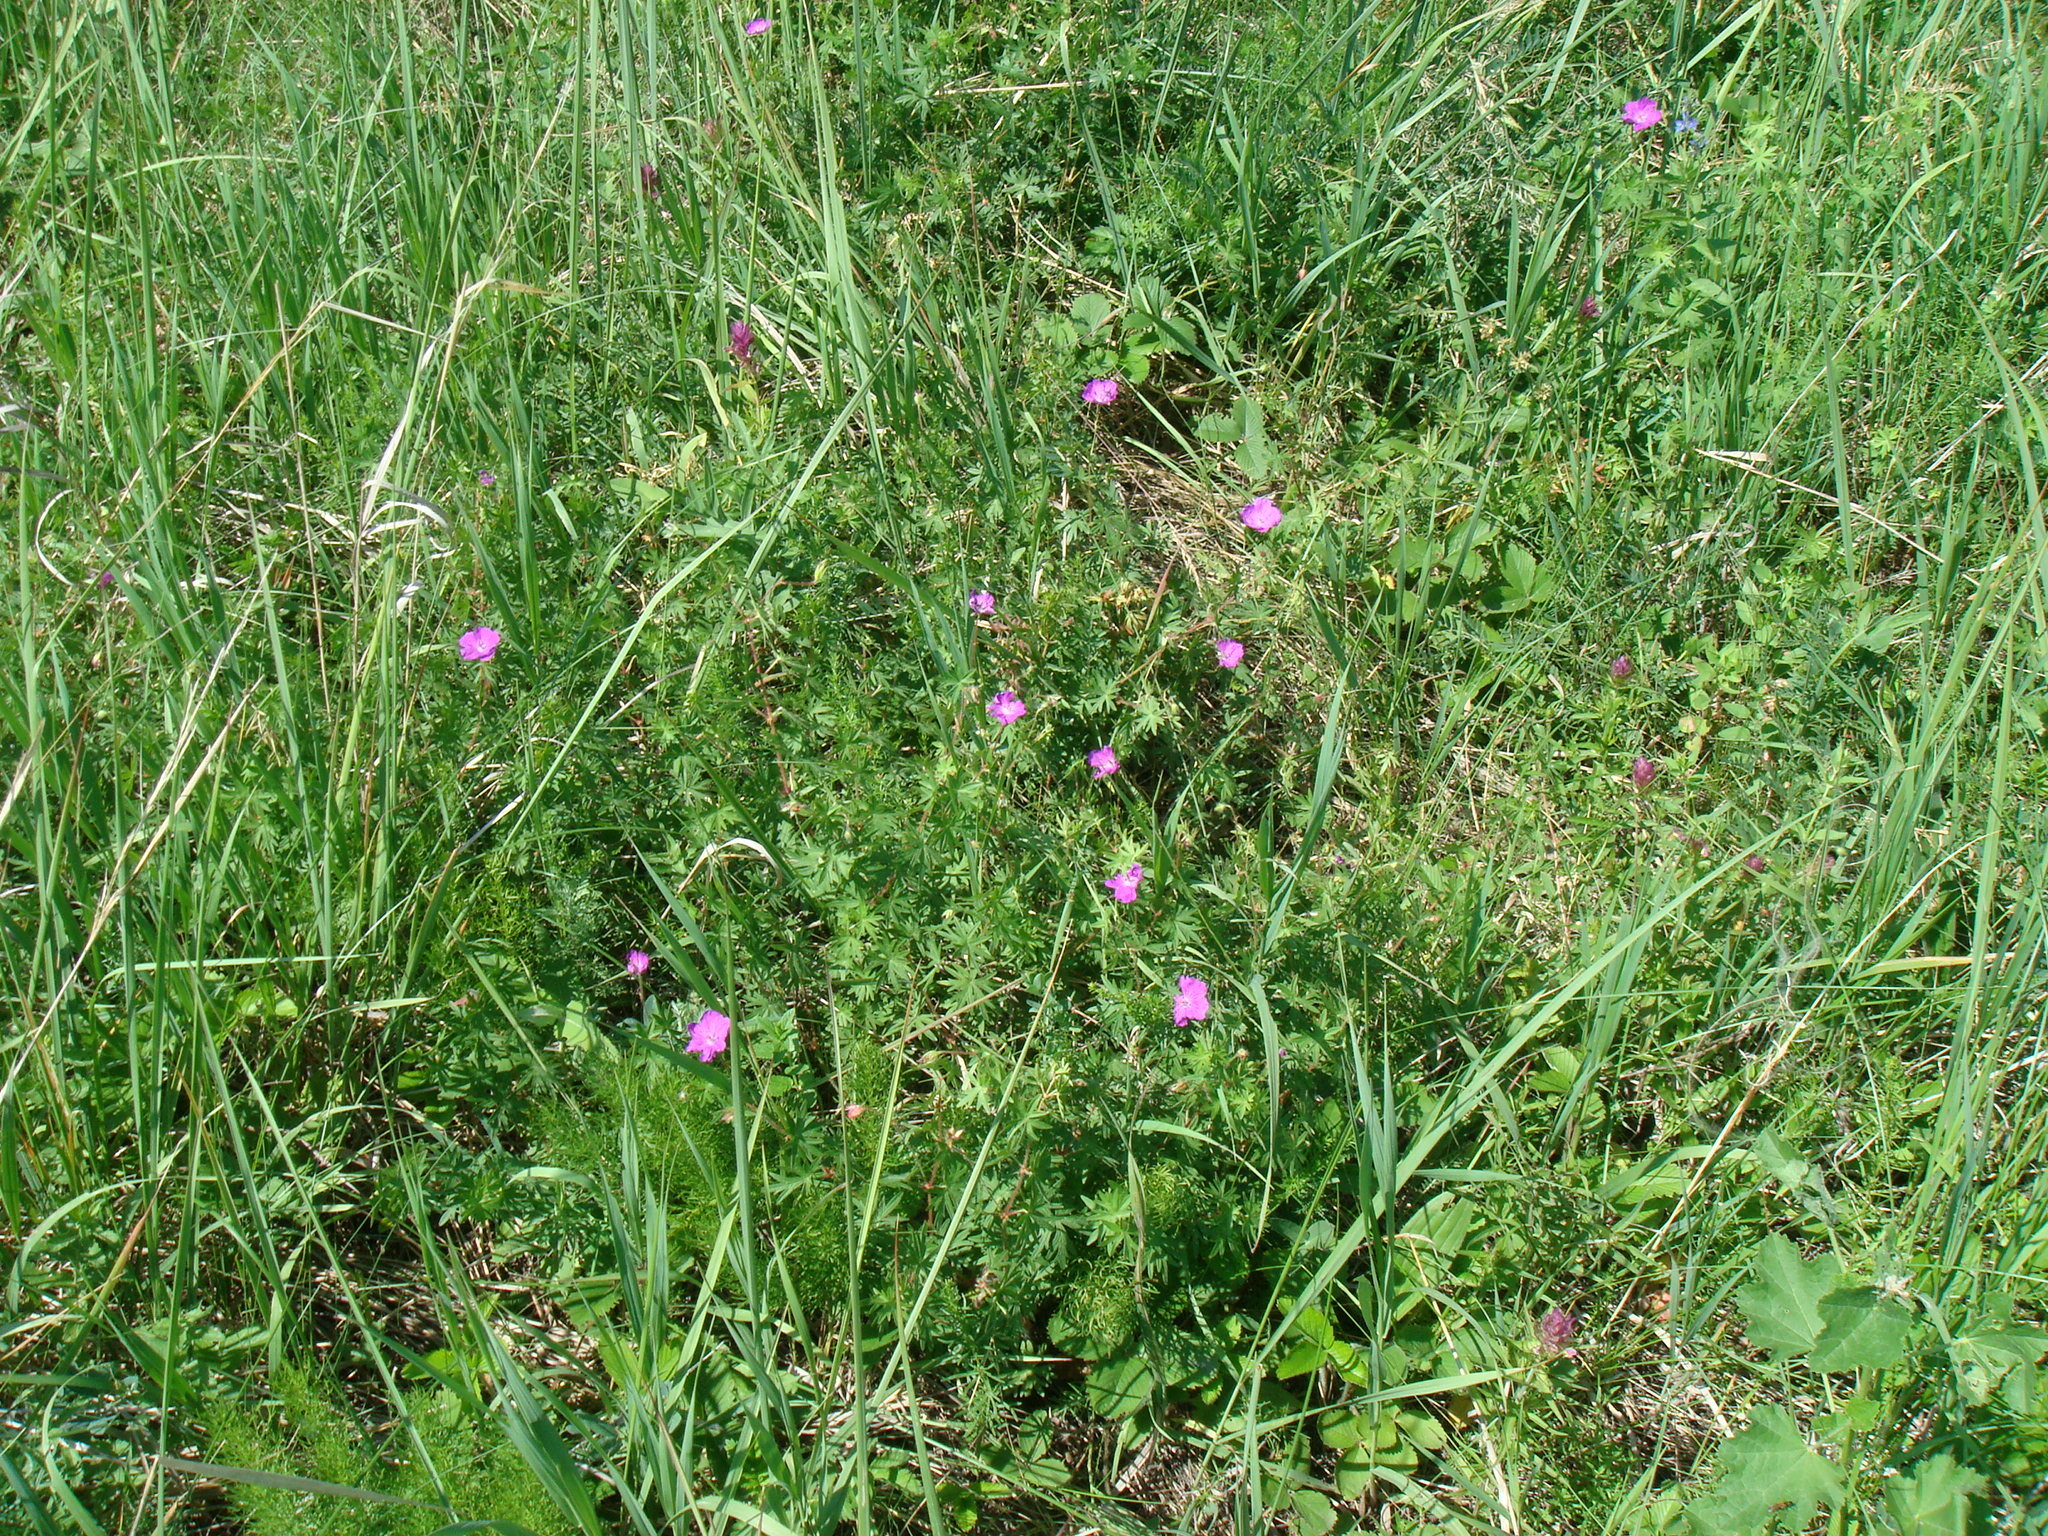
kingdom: Plantae
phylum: Tracheophyta
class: Magnoliopsida
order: Geraniales
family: Geraniaceae
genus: Geranium
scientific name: Geranium sanguineum
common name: Bloody crane's-bill
